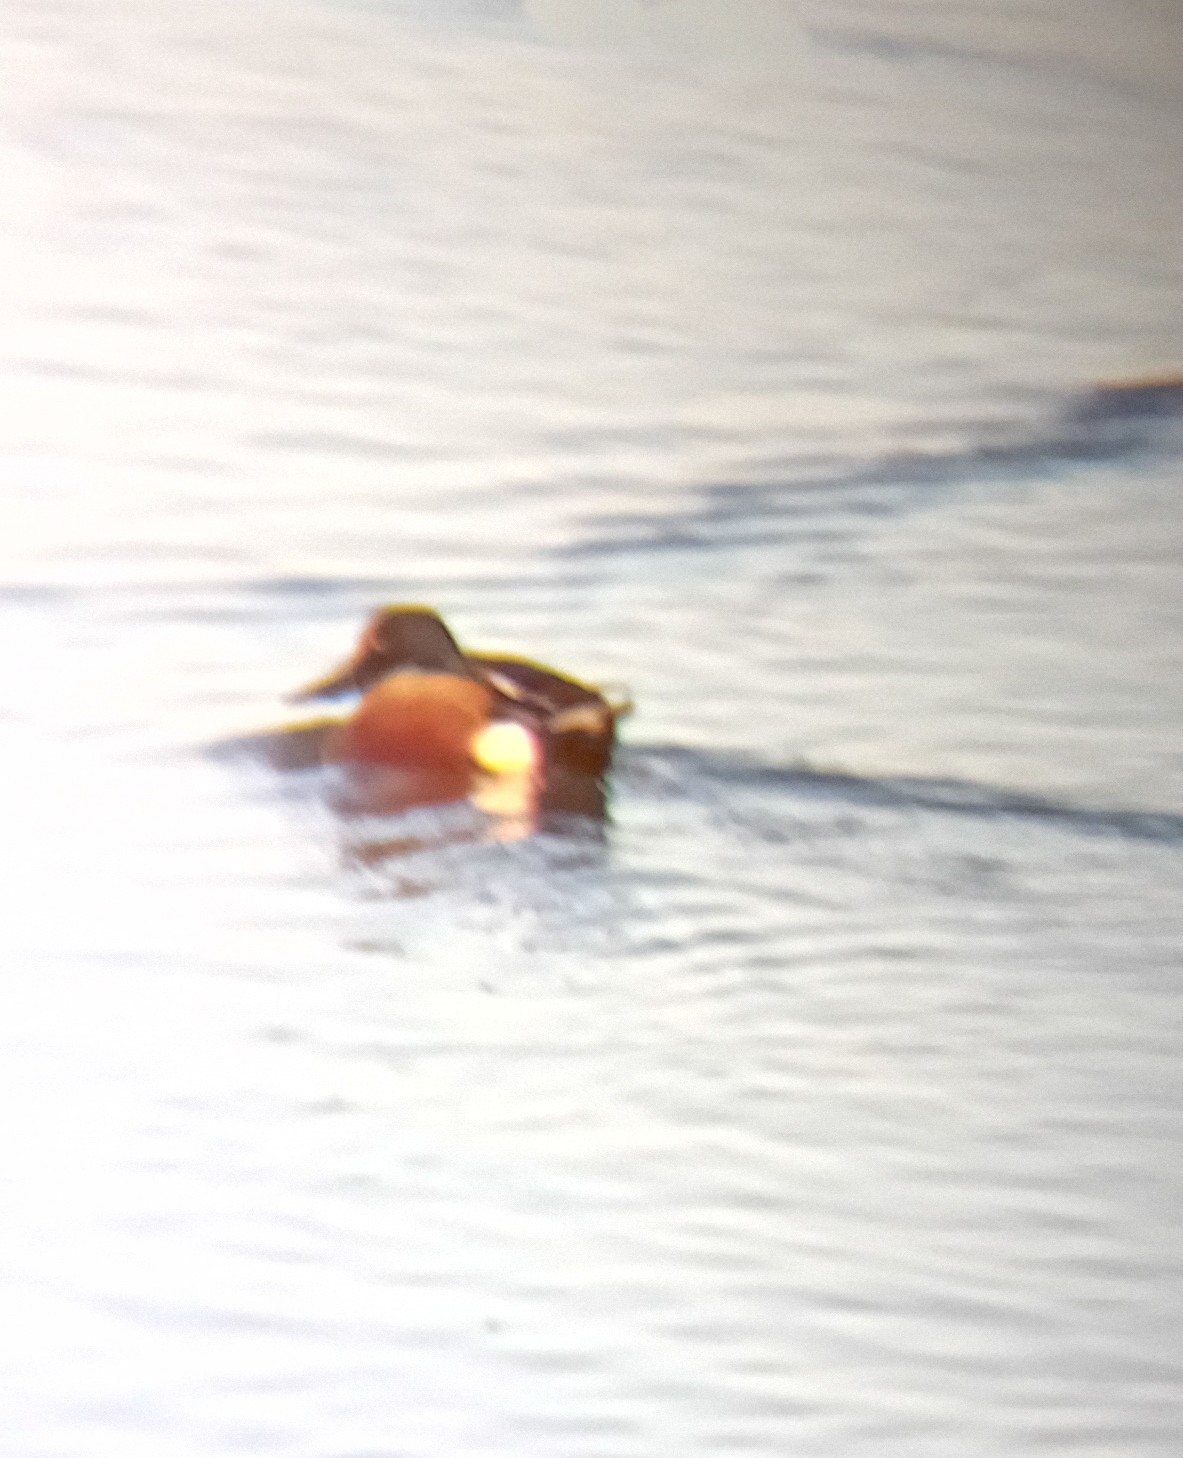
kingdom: Animalia
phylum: Chordata
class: Aves
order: Anseriformes
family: Anatidae
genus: Spatula
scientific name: Spatula clypeata
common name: Northern shoveler
